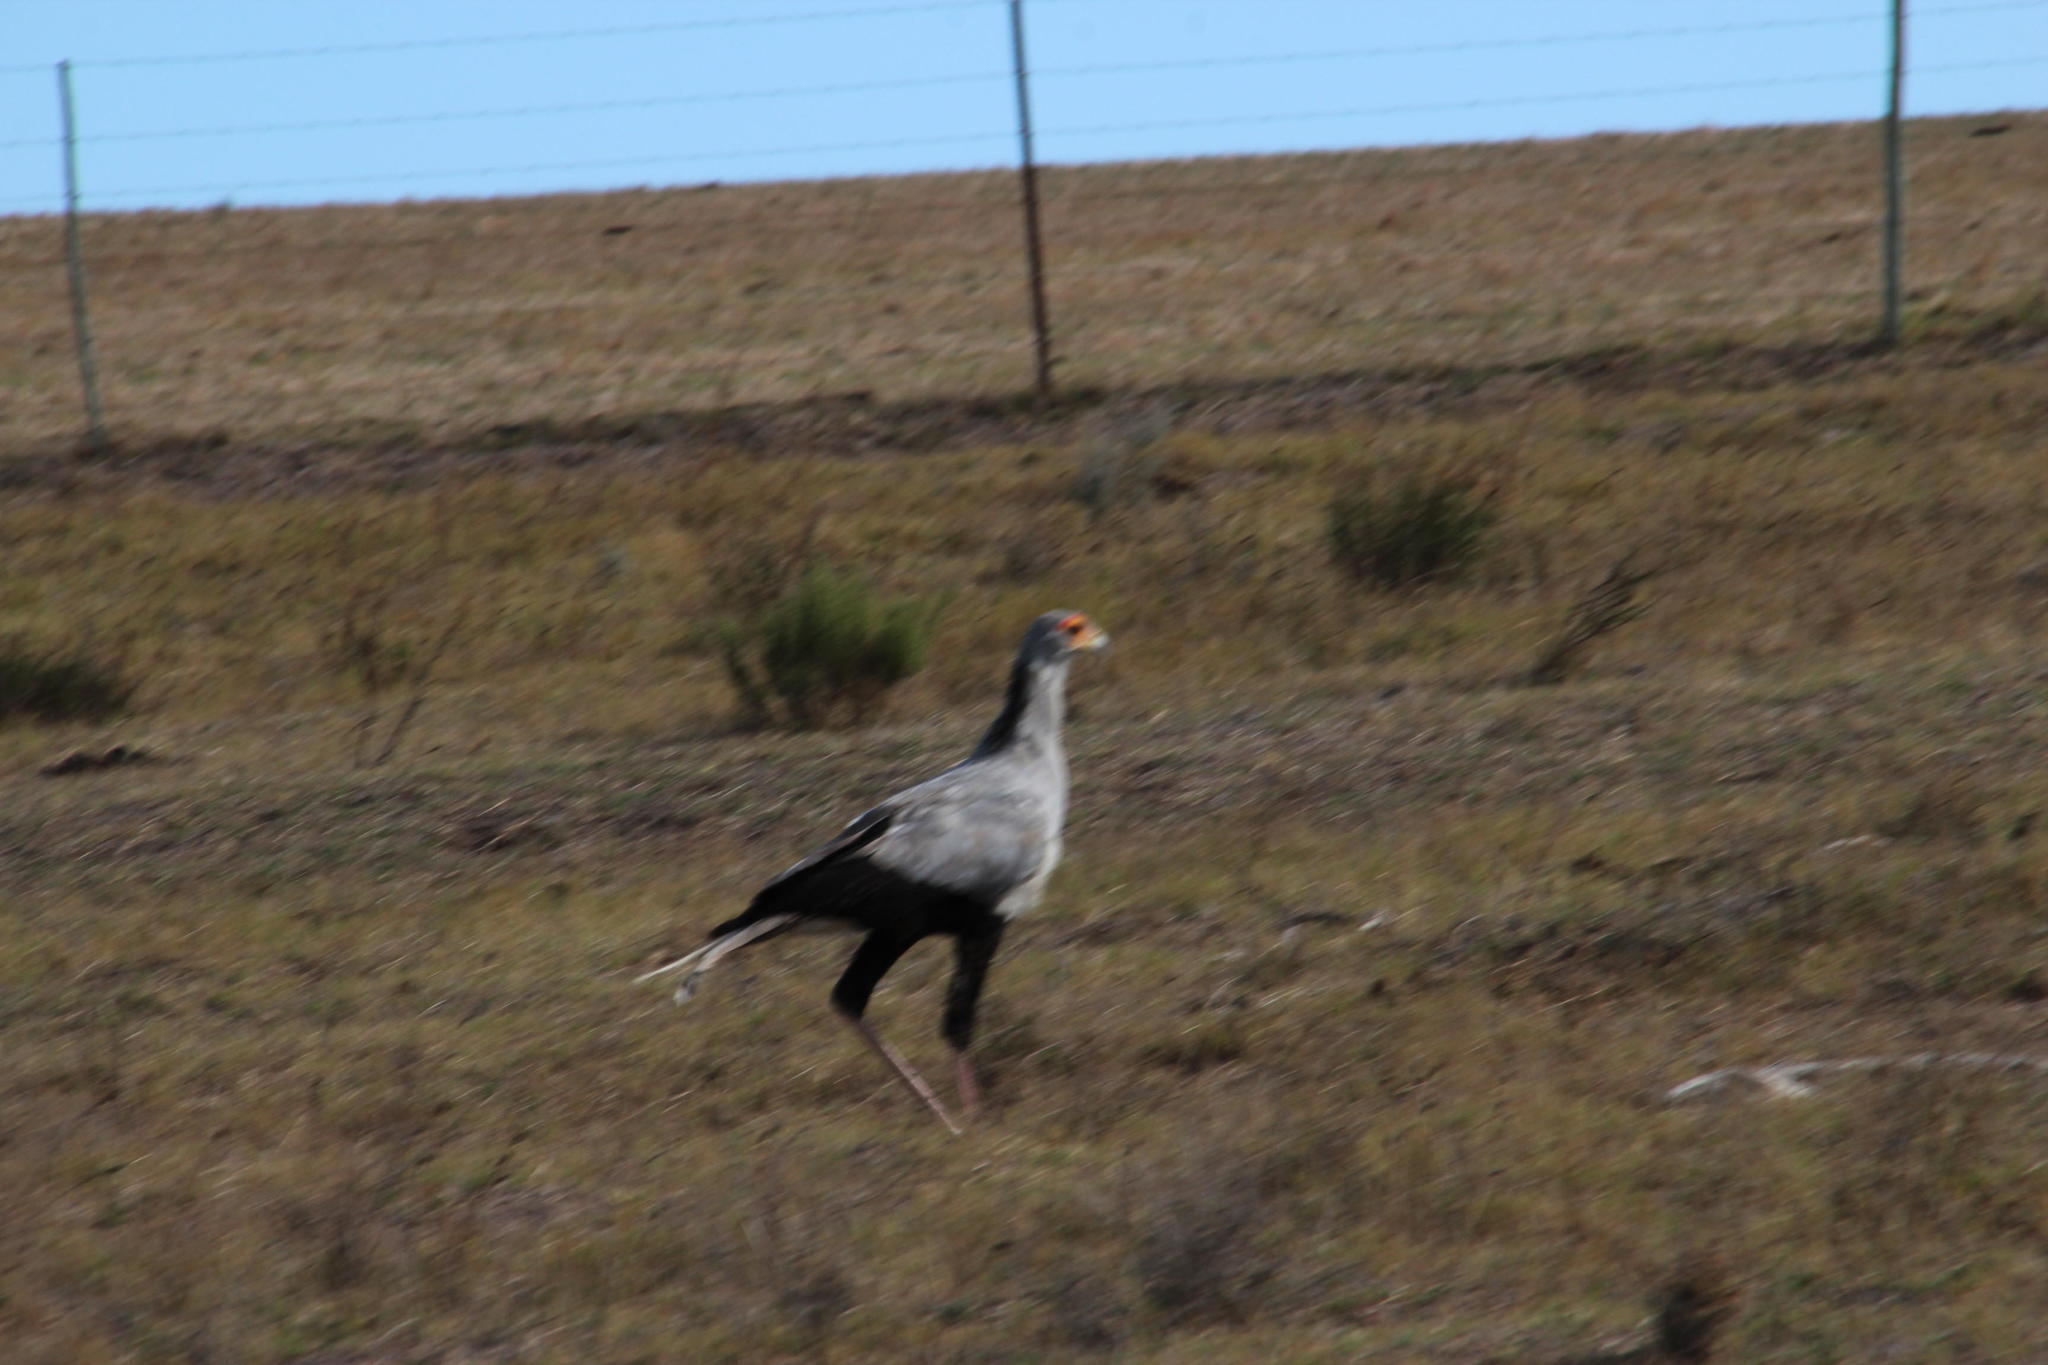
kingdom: Animalia
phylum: Chordata
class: Aves
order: Accipitriformes
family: Sagittariidae
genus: Sagittarius
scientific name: Sagittarius serpentarius
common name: Secretarybird
